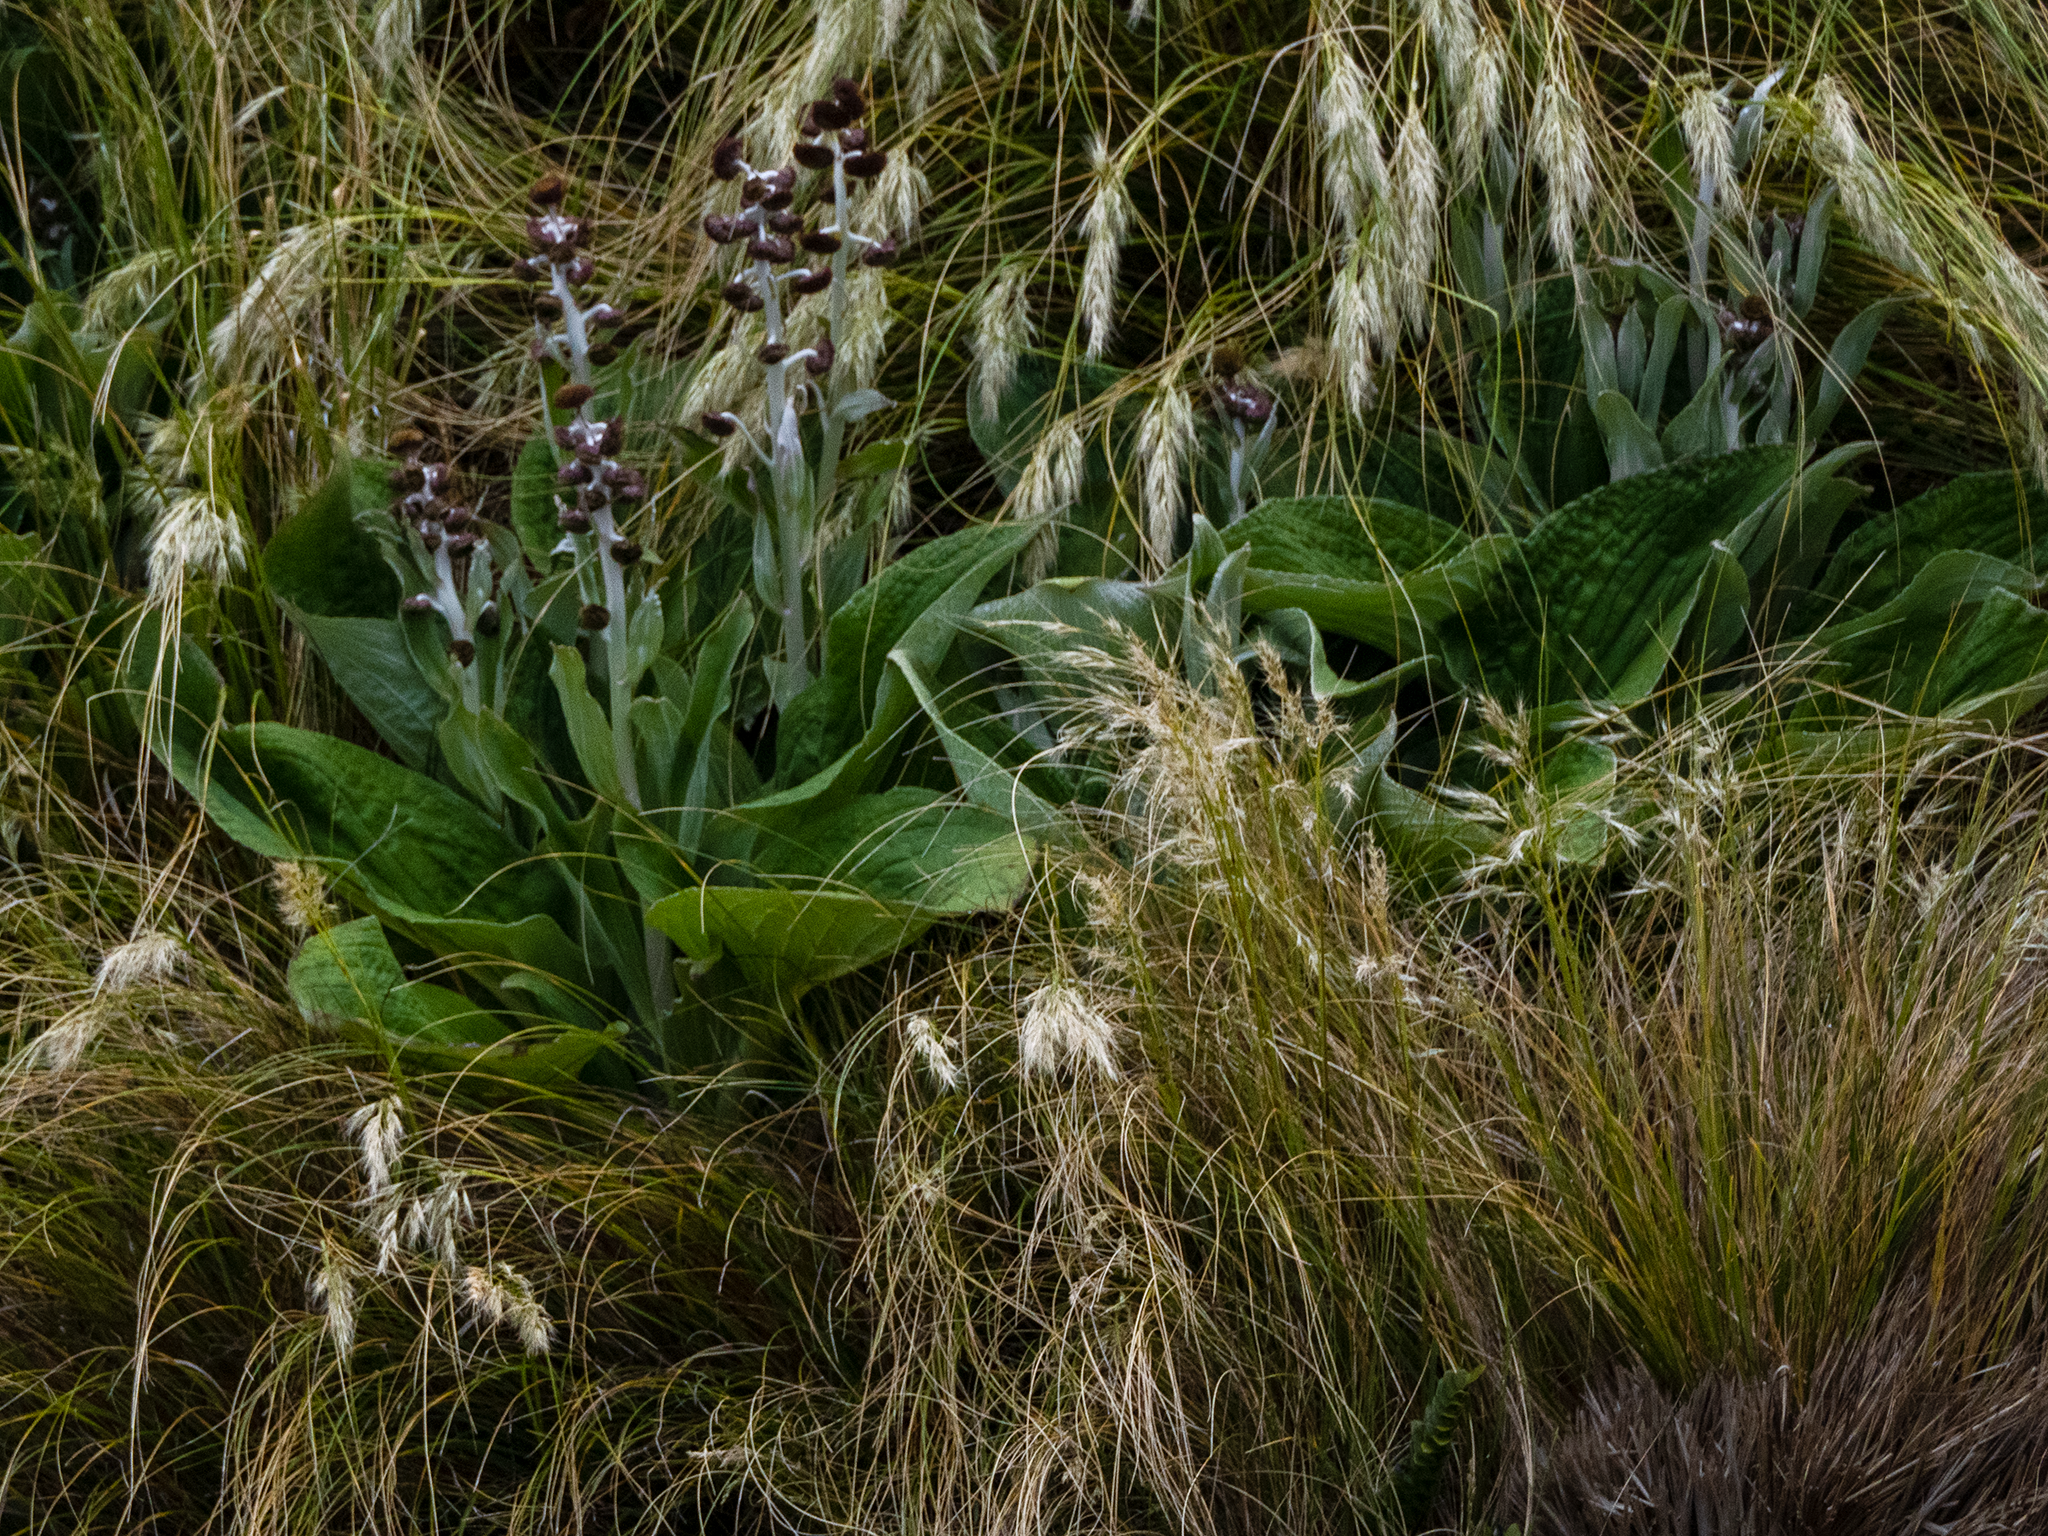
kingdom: Plantae
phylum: Tracheophyta
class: Magnoliopsida
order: Asterales
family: Asteraceae
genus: Pleurophyllum
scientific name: Pleurophyllum criniferum
